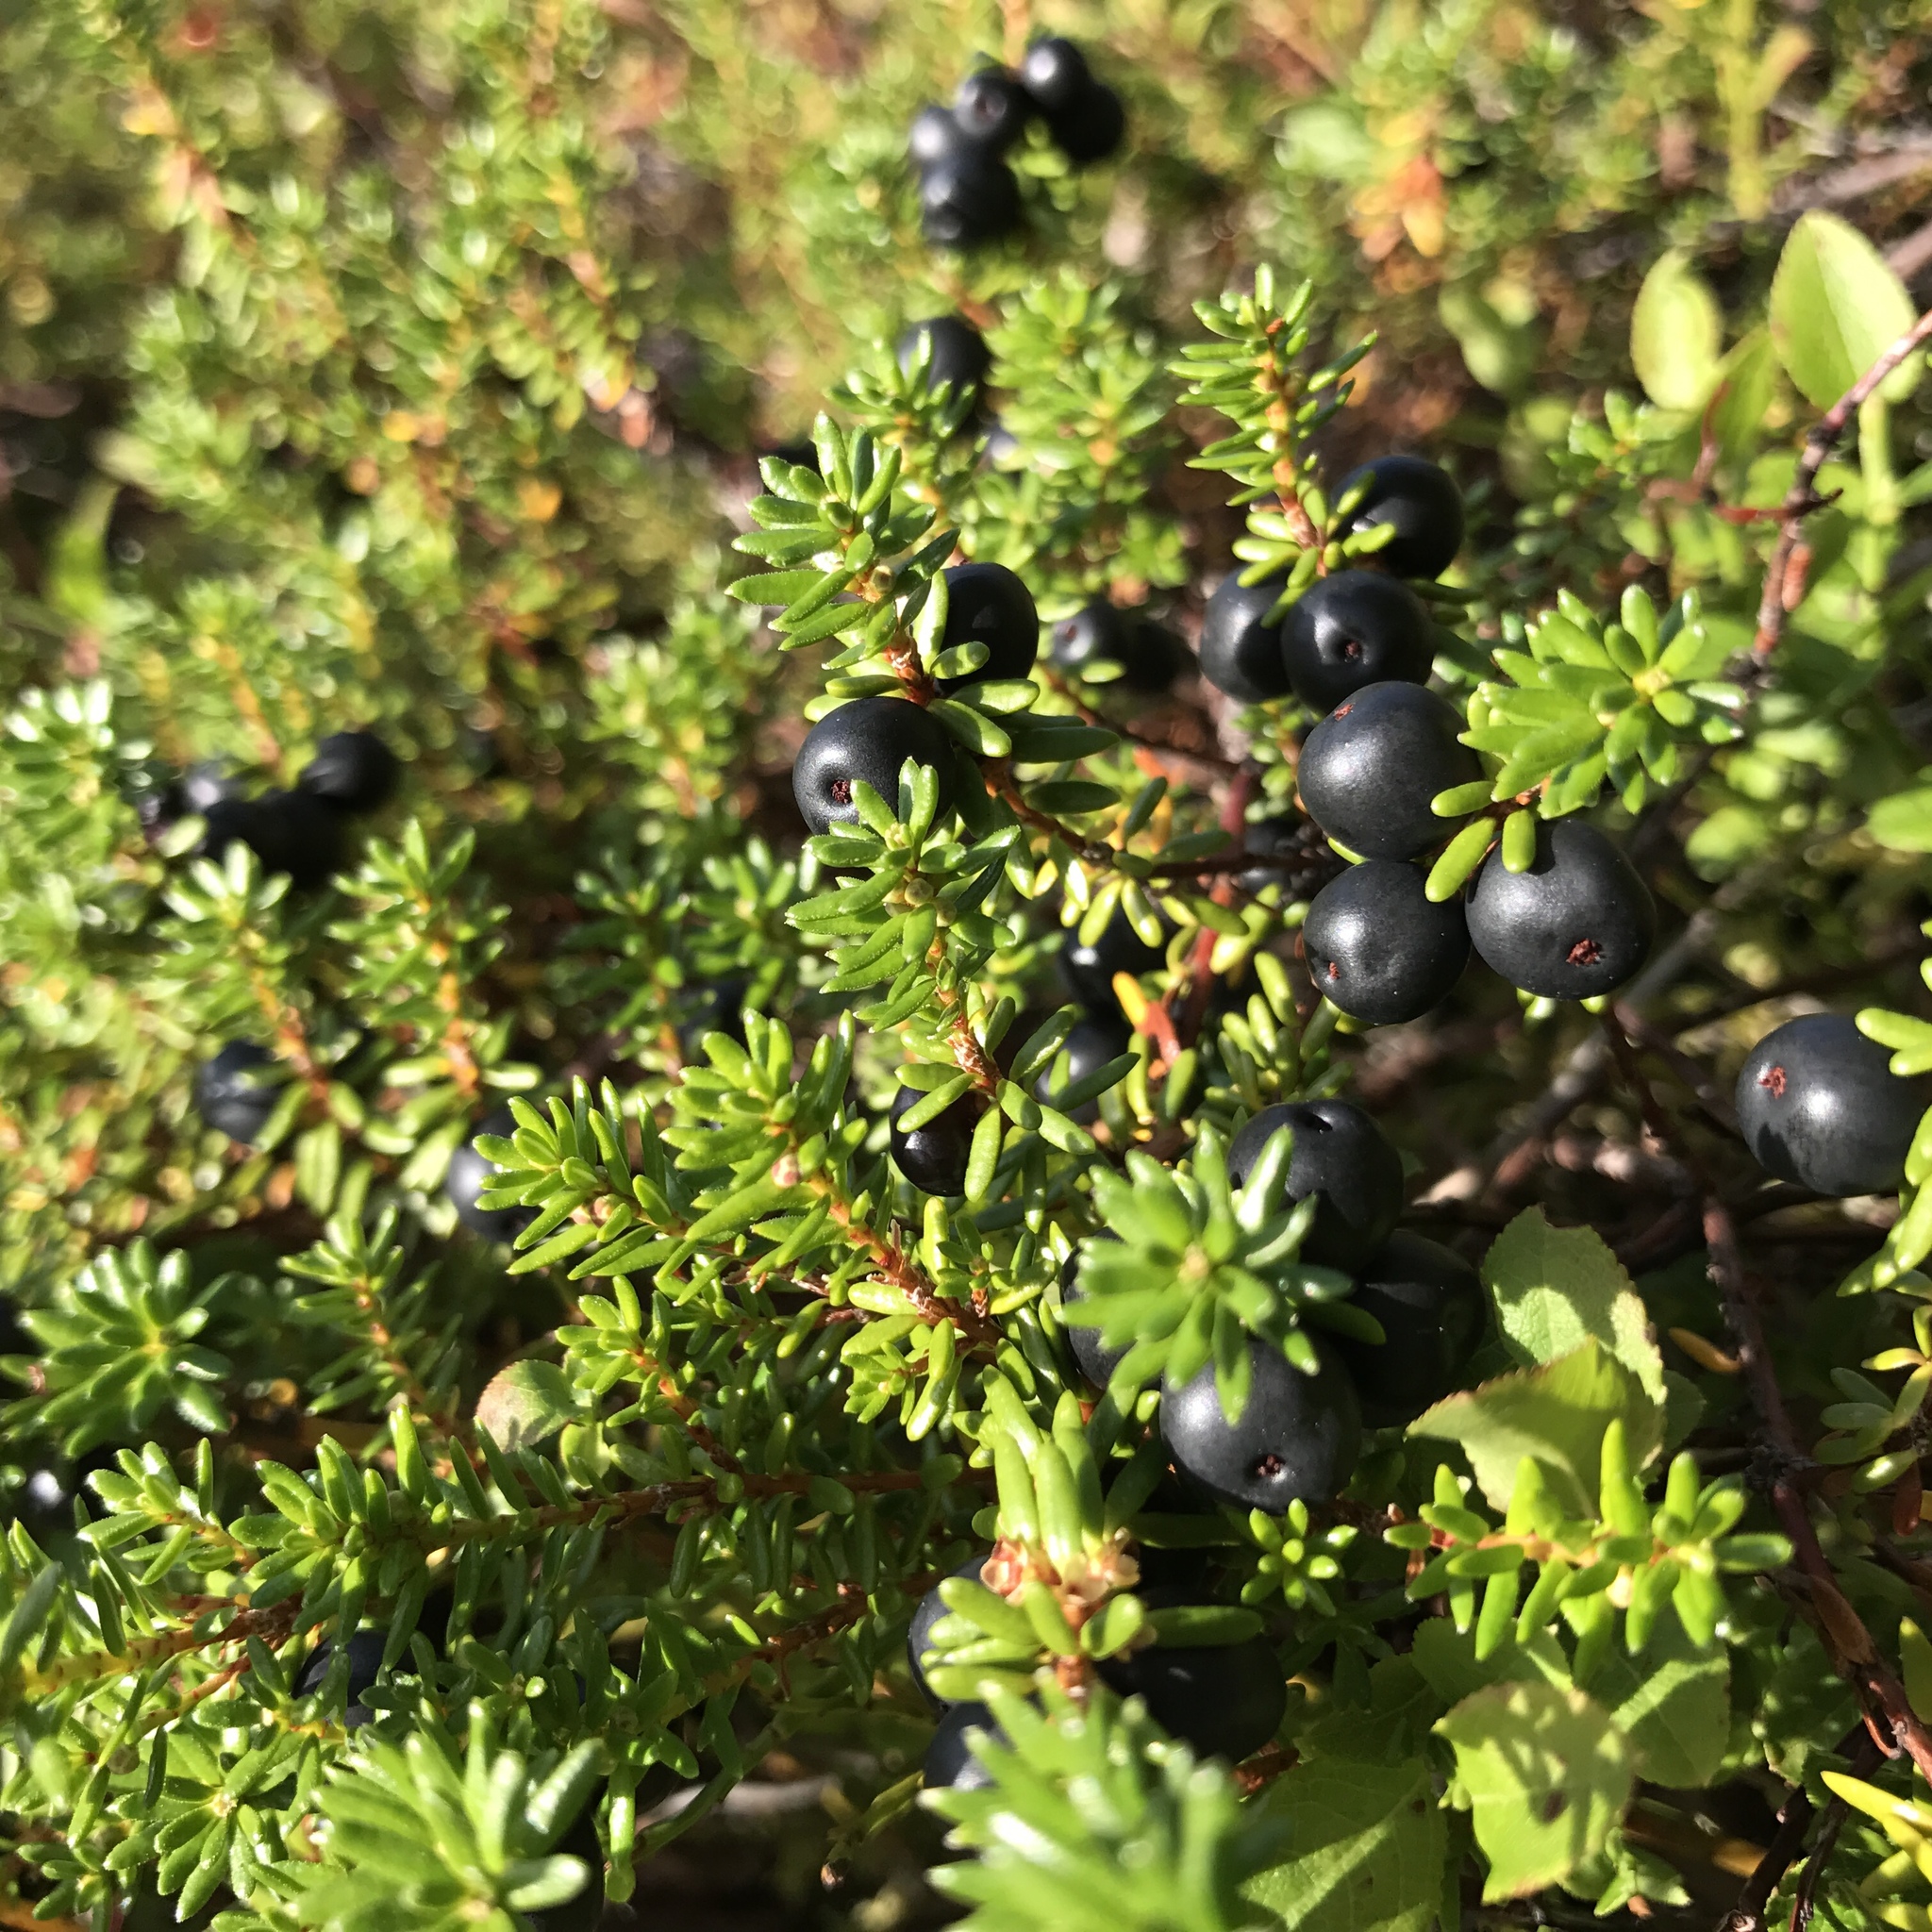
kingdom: Plantae
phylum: Tracheophyta
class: Magnoliopsida
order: Ericales
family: Ericaceae
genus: Empetrum
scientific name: Empetrum nigrum
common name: Black crowberry
